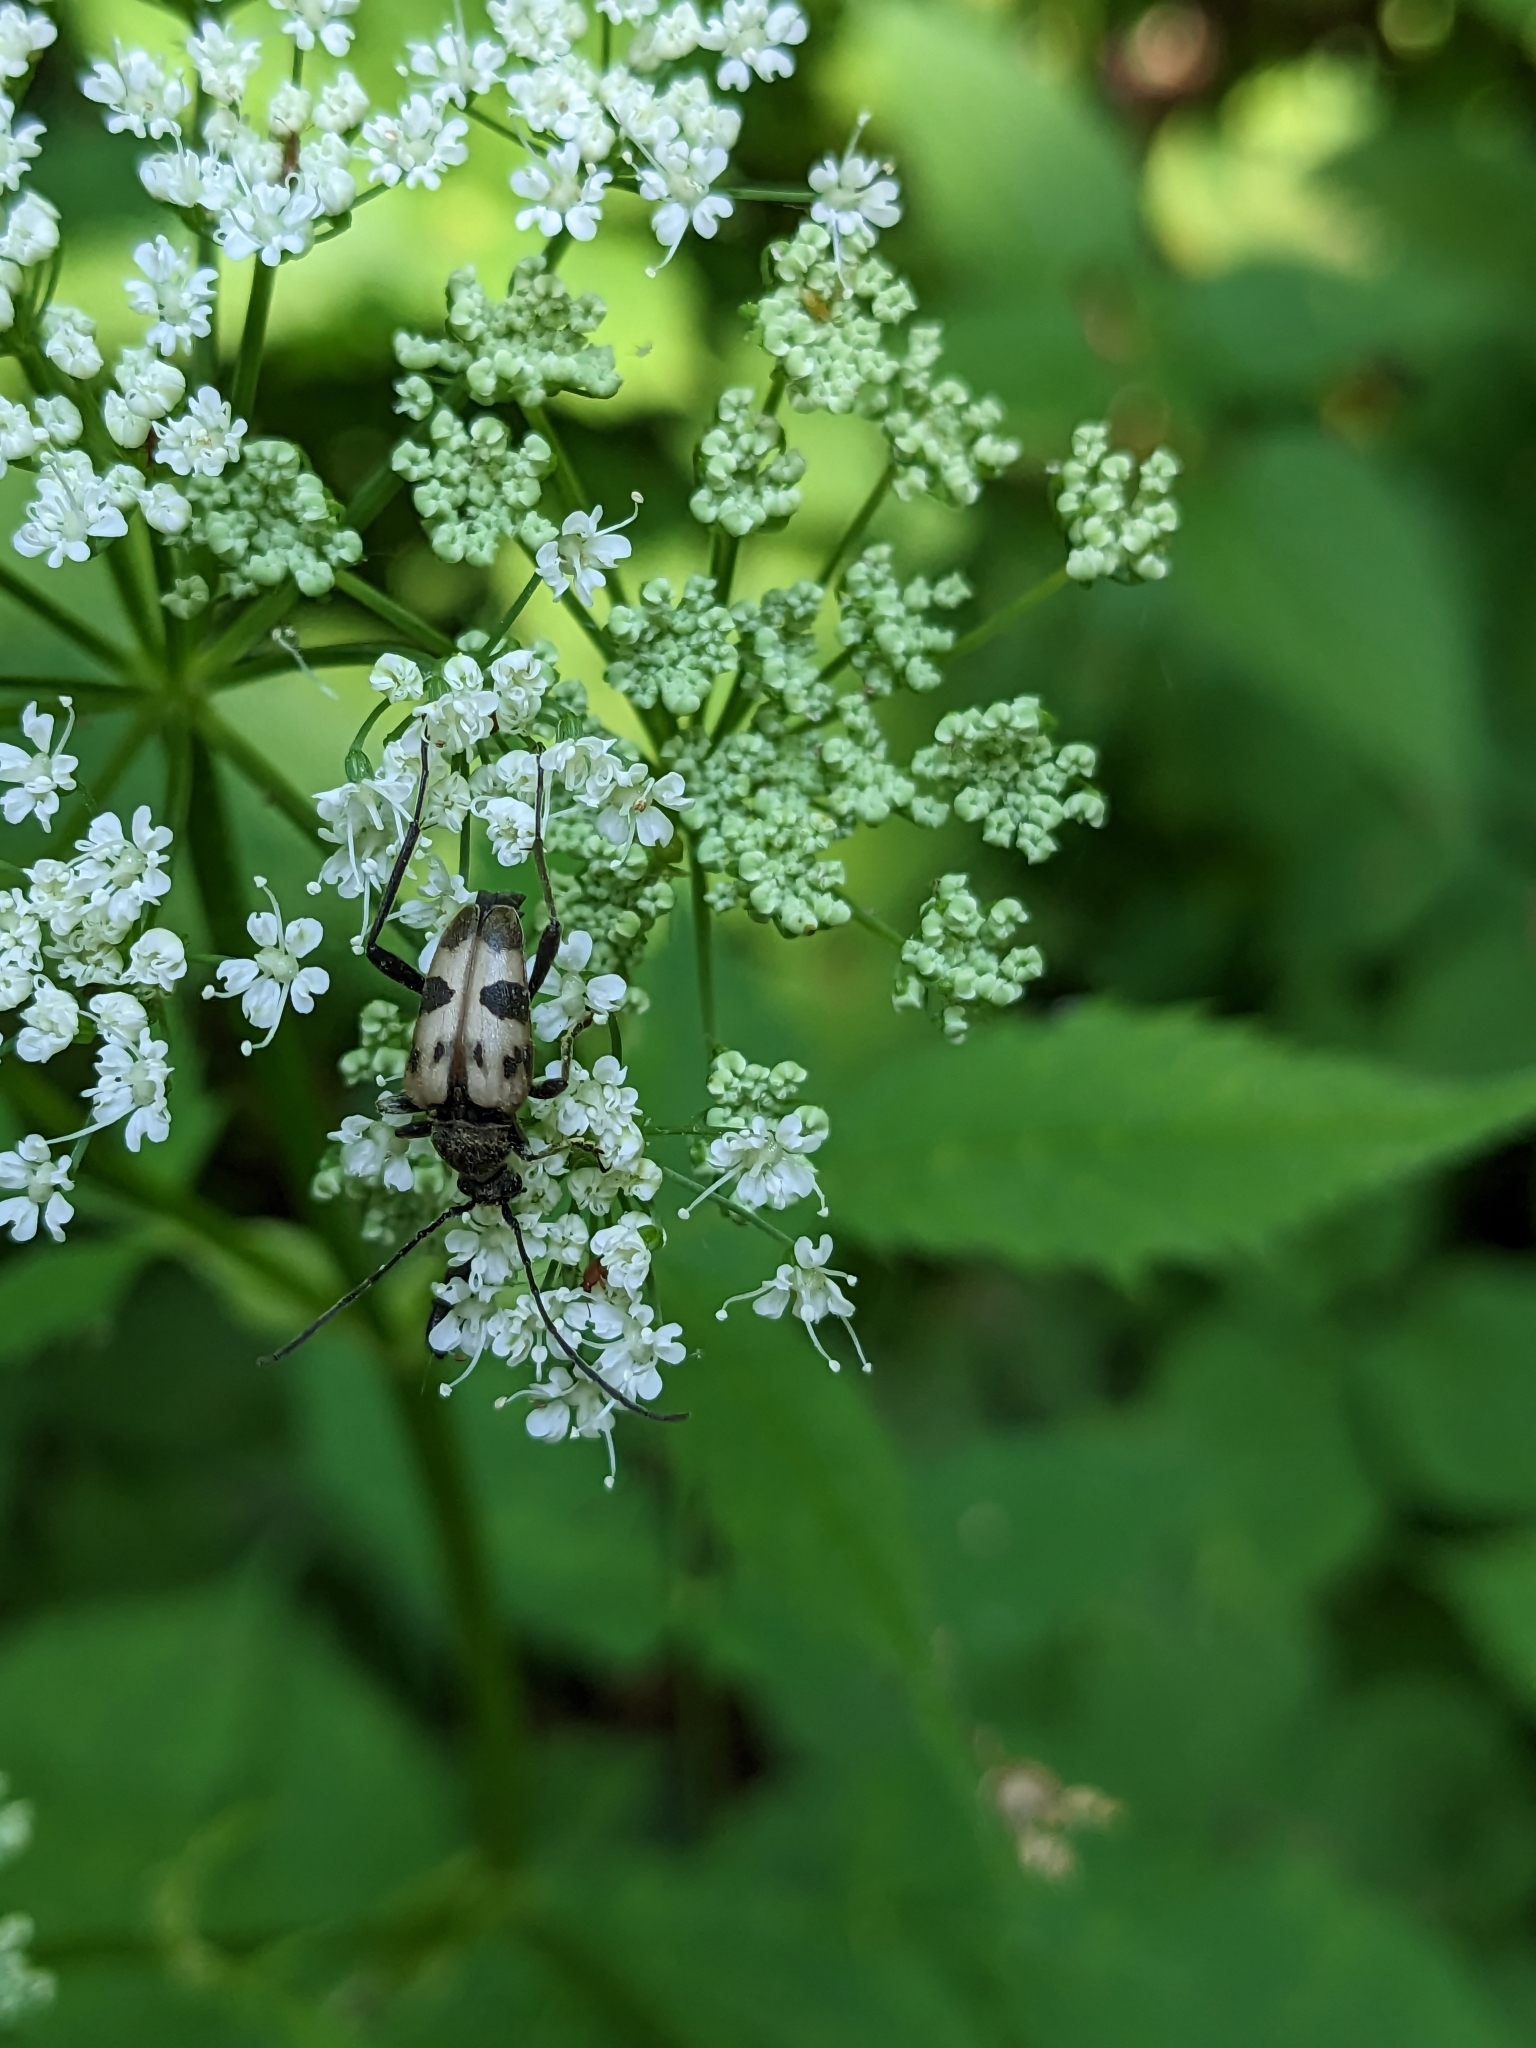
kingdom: Animalia
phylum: Arthropoda
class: Insecta
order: Coleoptera
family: Cerambycidae
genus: Pachytodes
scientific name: Pachytodes cerambyciformis
